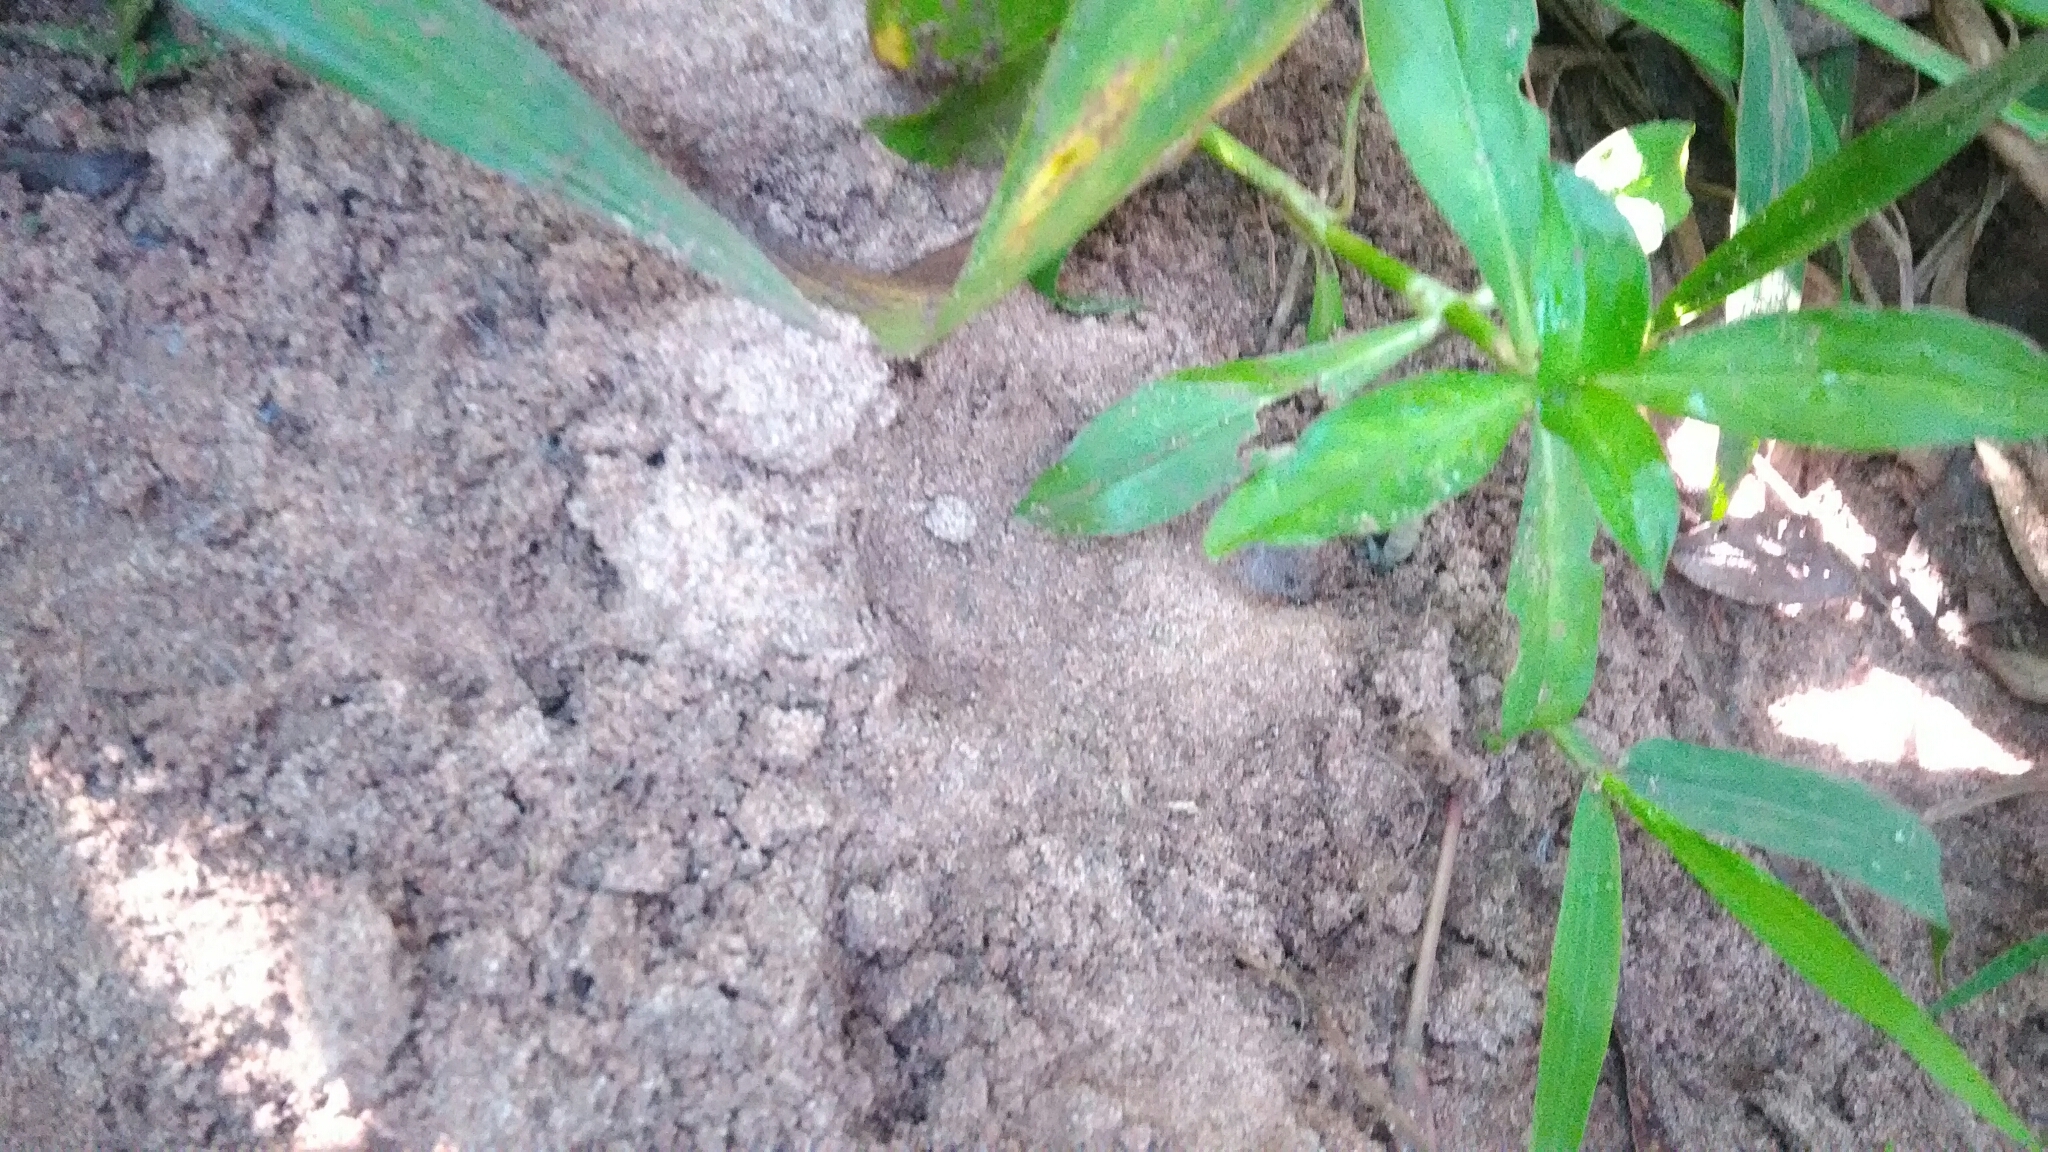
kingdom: Animalia
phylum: Chordata
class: Mammalia
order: Rodentia
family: Caviidae
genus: Hydrochoerus
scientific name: Hydrochoerus hydrochaeris
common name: Capybara
